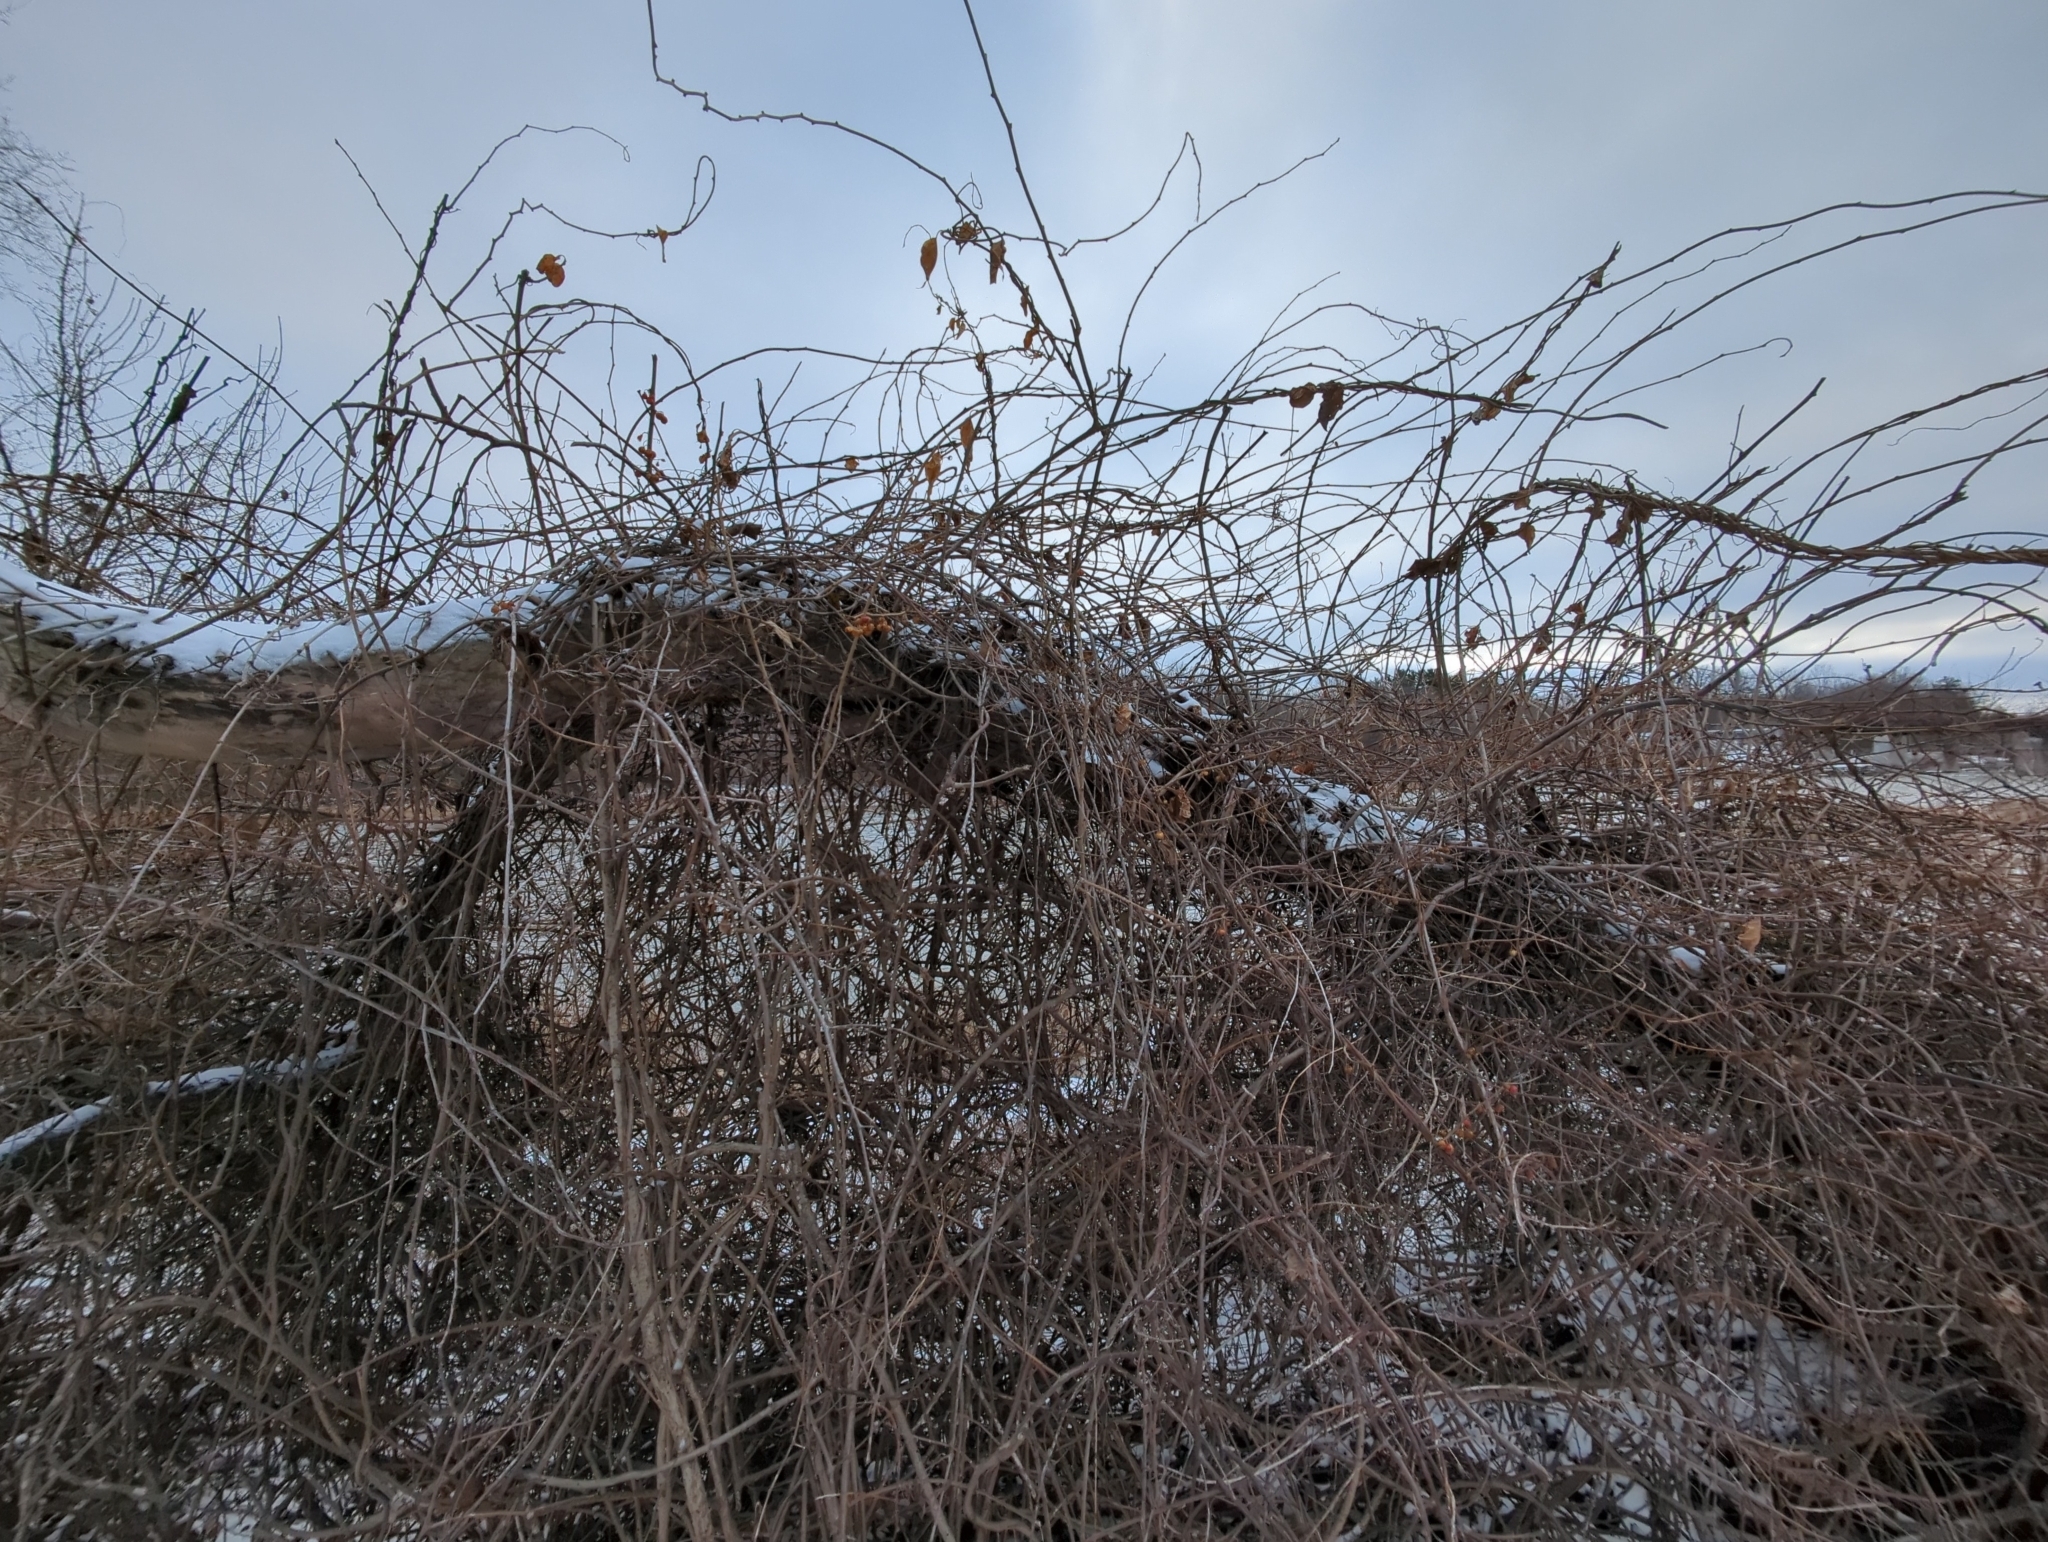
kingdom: Plantae
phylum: Tracheophyta
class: Magnoliopsida
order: Celastrales
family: Celastraceae
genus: Celastrus
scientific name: Celastrus orbiculatus
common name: Oriental bittersweet
